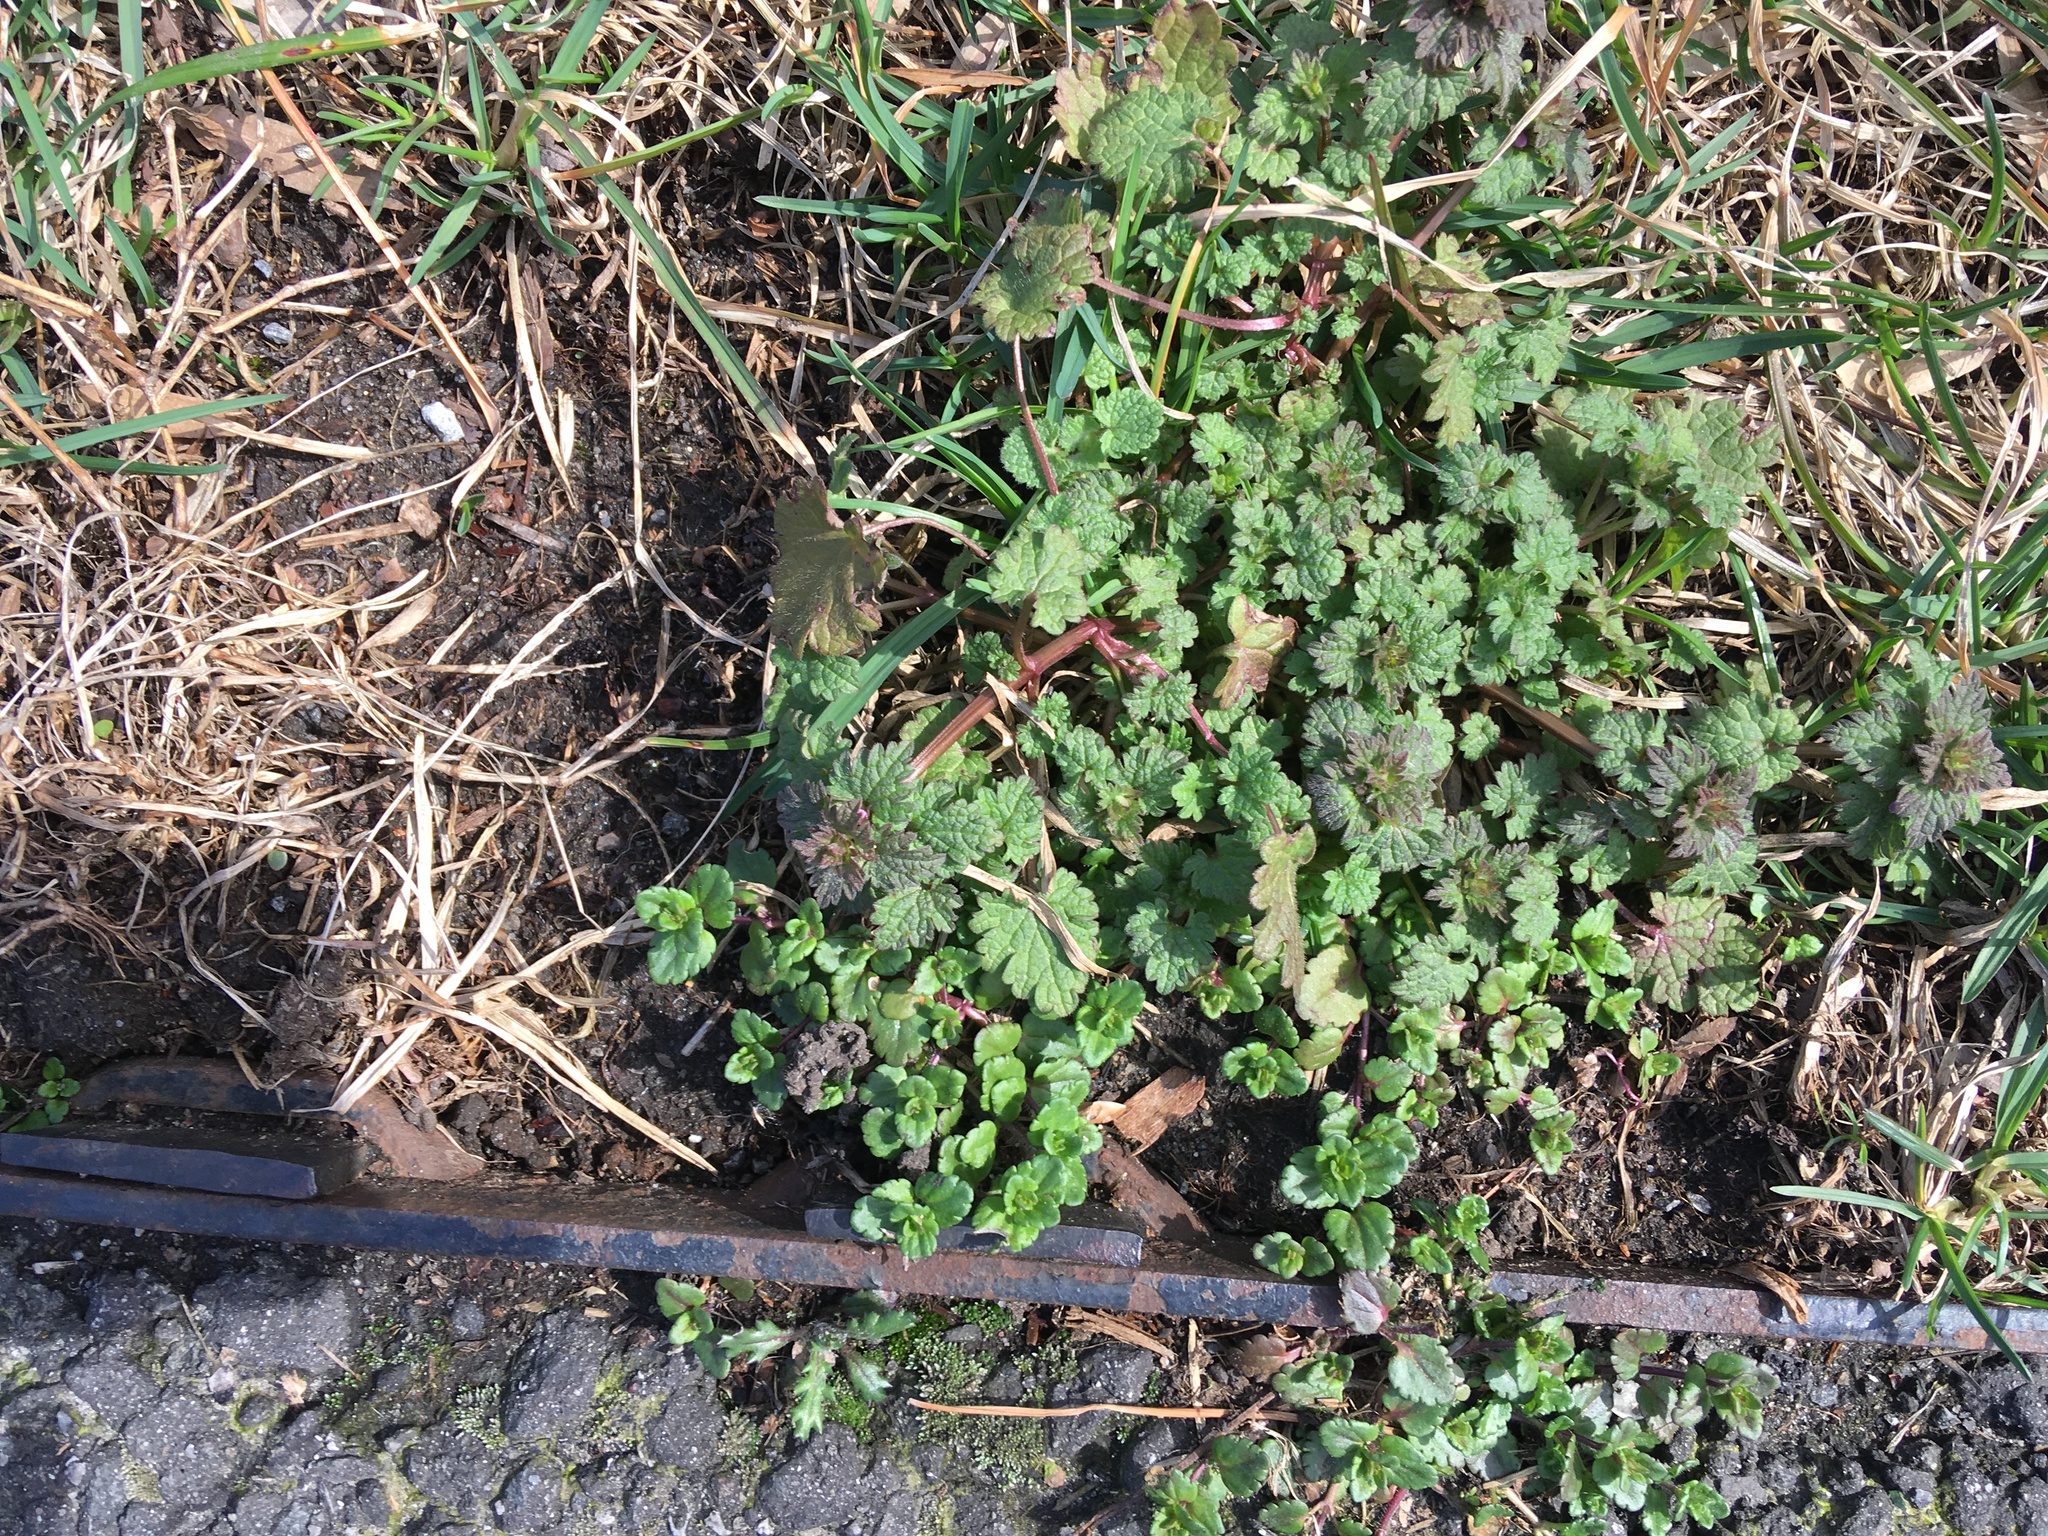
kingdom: Plantae
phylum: Tracheophyta
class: Magnoliopsida
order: Lamiales
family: Lamiaceae
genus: Lamium
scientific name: Lamium hybridum
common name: Cut-leaved dead-nettle
